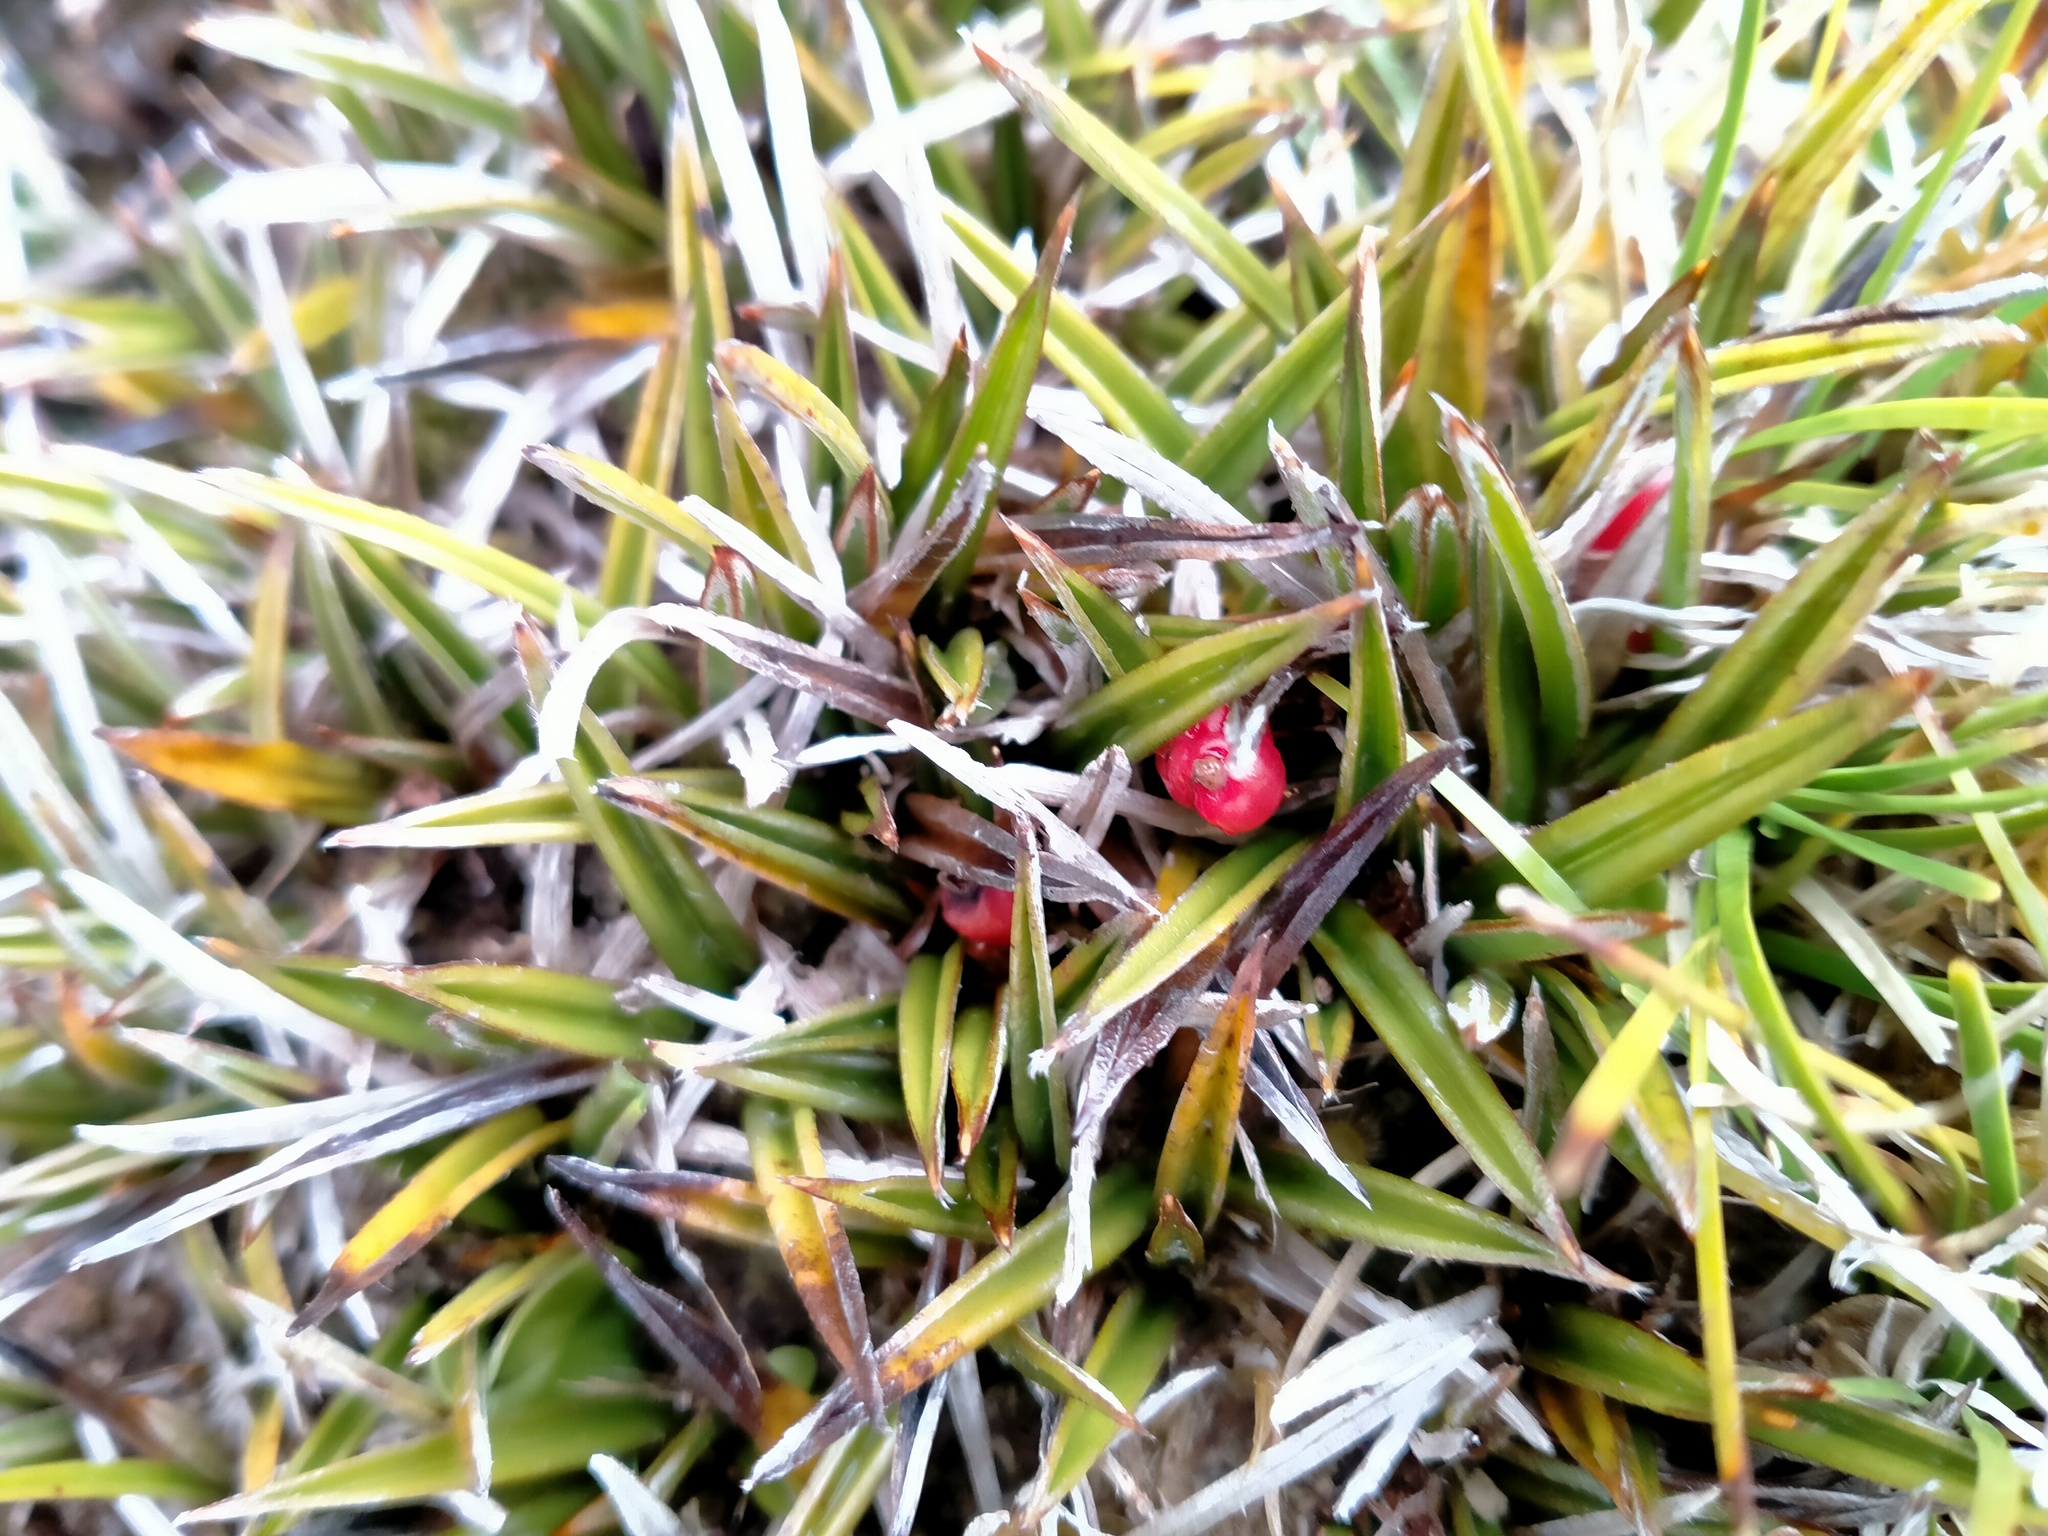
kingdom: Plantae
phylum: Tracheophyta
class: Liliopsida
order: Asparagales
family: Asteliaceae
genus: Astelia
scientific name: Astelia linearis
